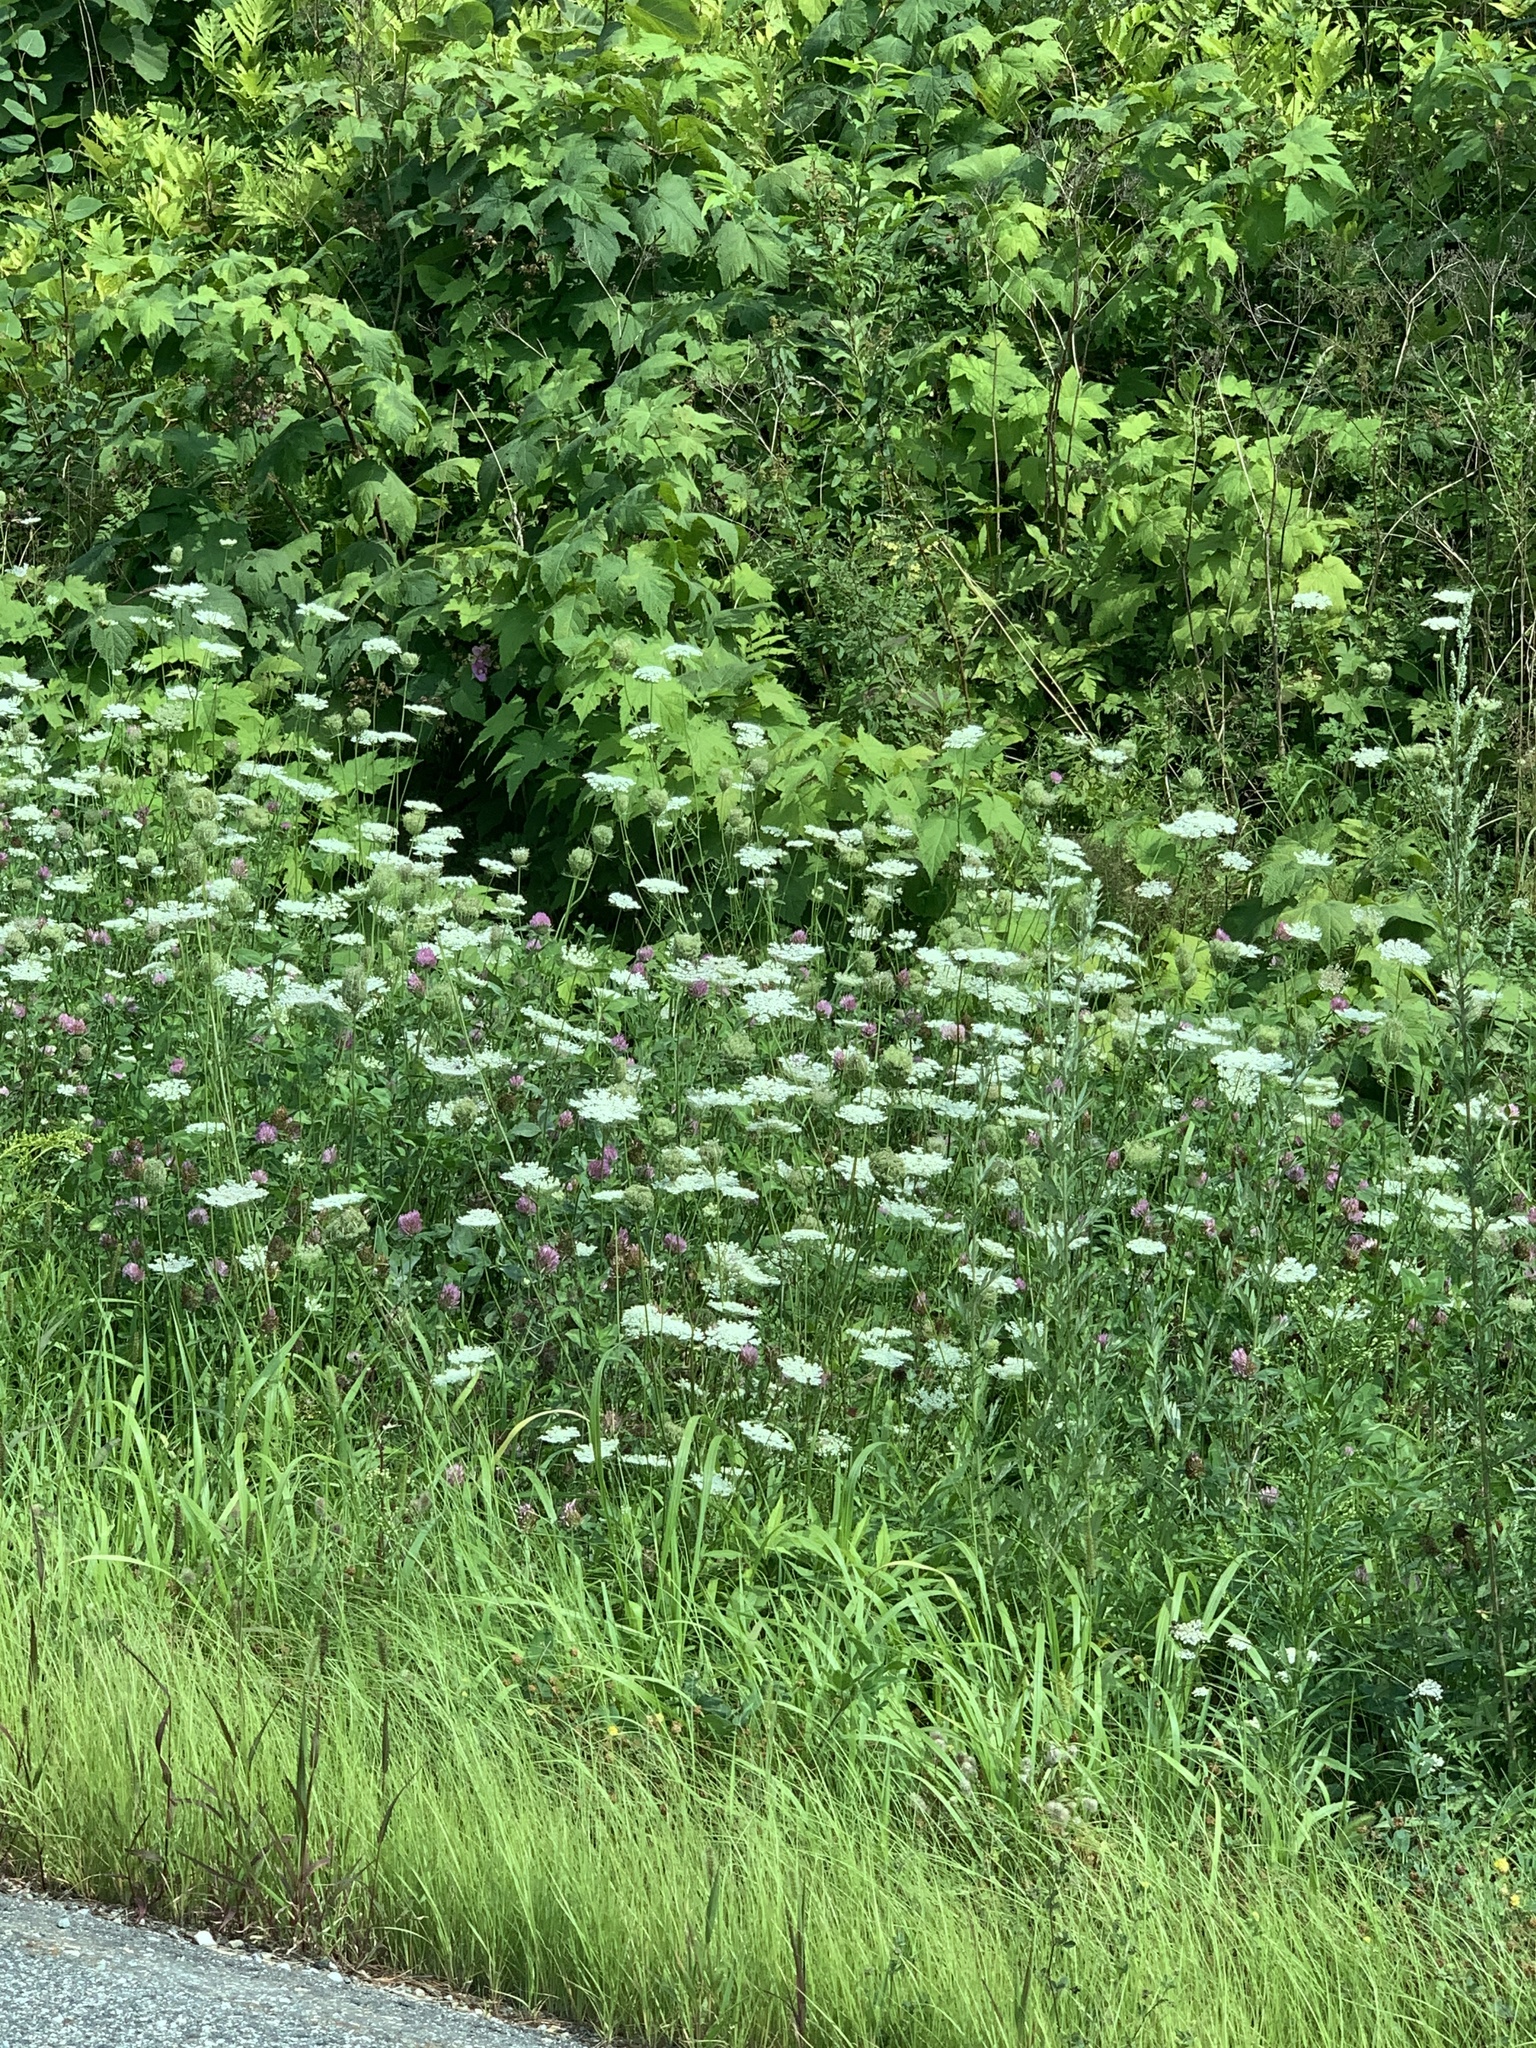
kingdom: Plantae
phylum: Tracheophyta
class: Magnoliopsida
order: Apiales
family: Apiaceae
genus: Daucus
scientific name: Daucus carota
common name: Wild carrot
